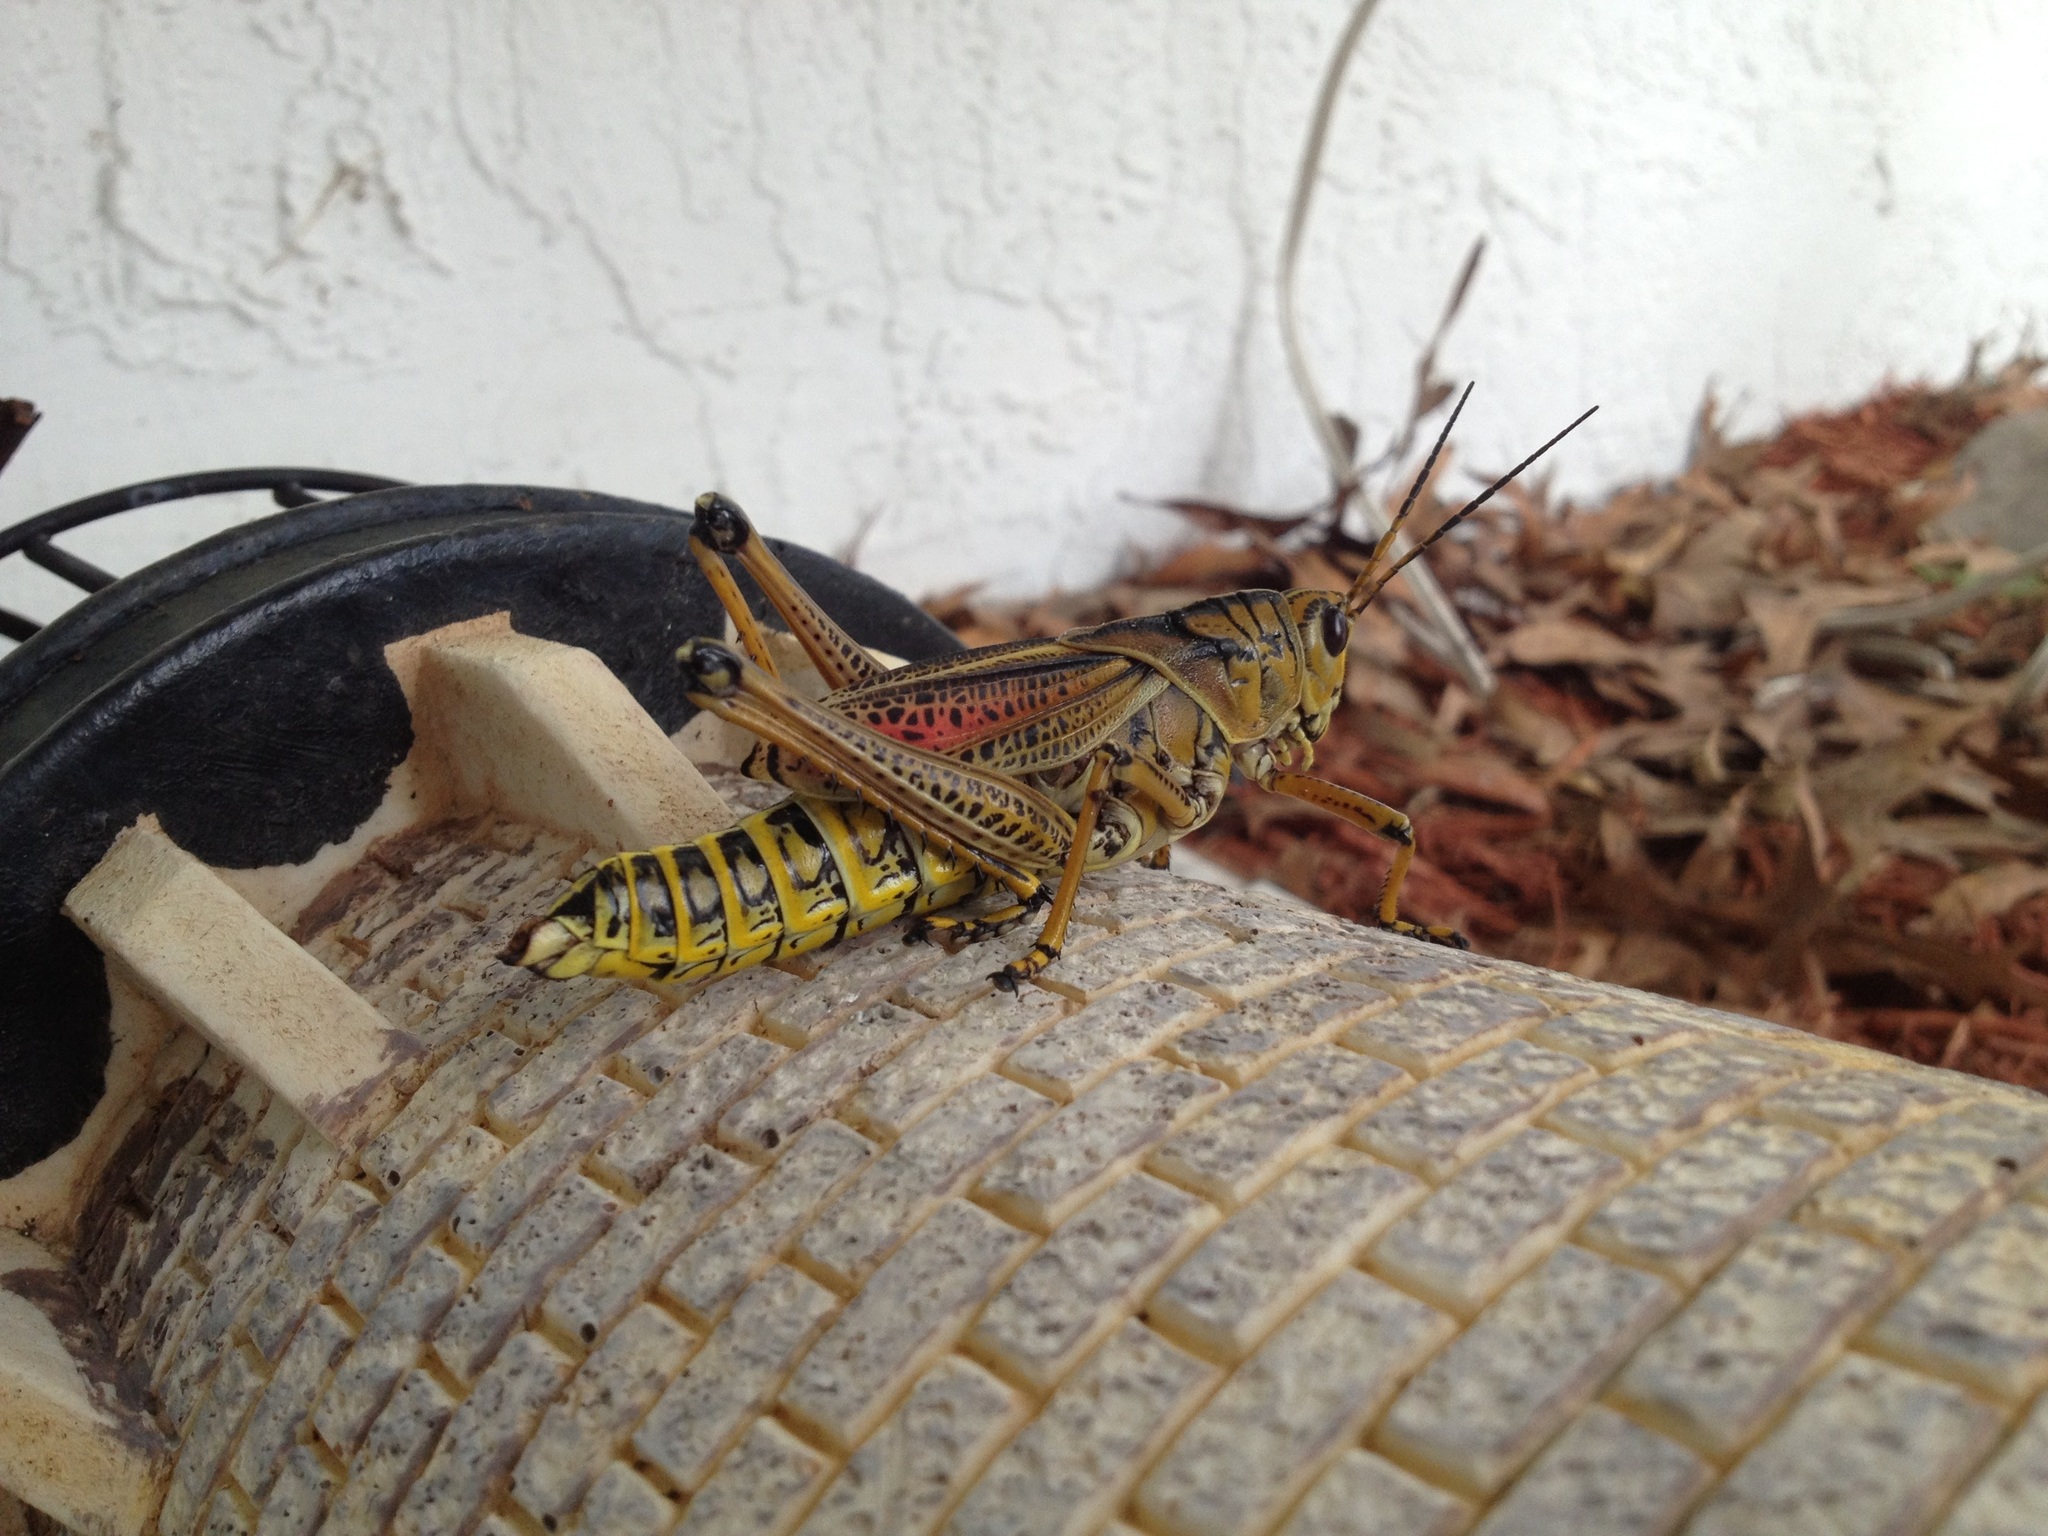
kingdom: Animalia
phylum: Arthropoda
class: Insecta
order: Orthoptera
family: Romaleidae
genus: Romalea
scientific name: Romalea microptera
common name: Eastern lubber grasshopper
